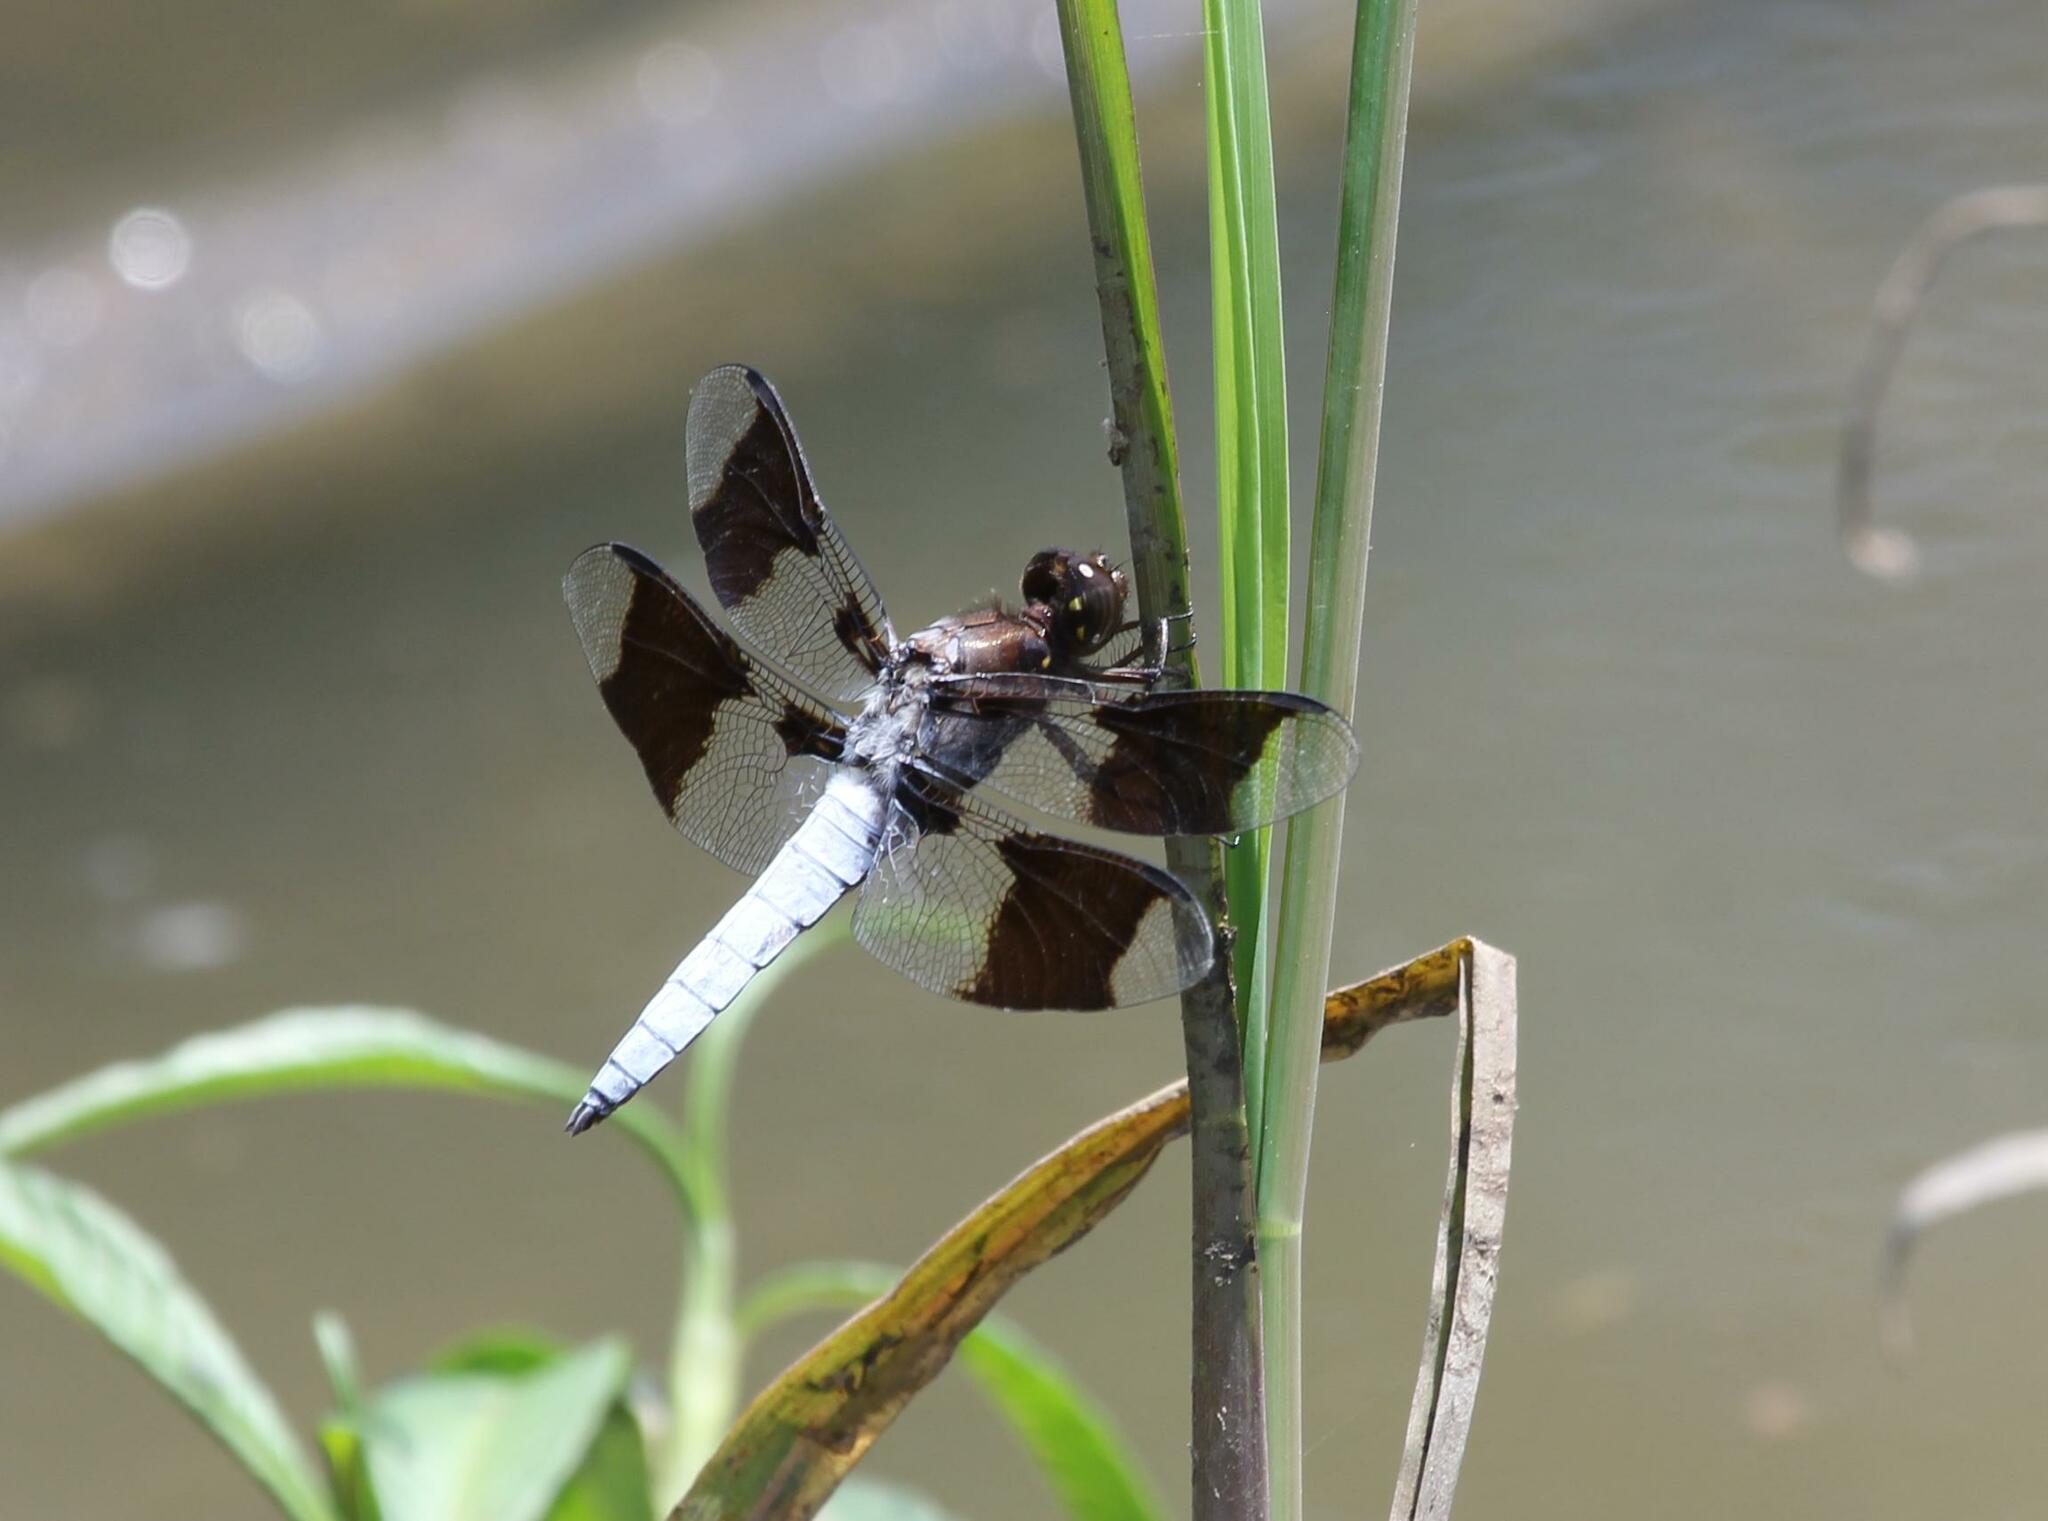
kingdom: Animalia
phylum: Arthropoda
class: Insecta
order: Odonata
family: Libellulidae
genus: Plathemis
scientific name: Plathemis lydia
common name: Common whitetail
